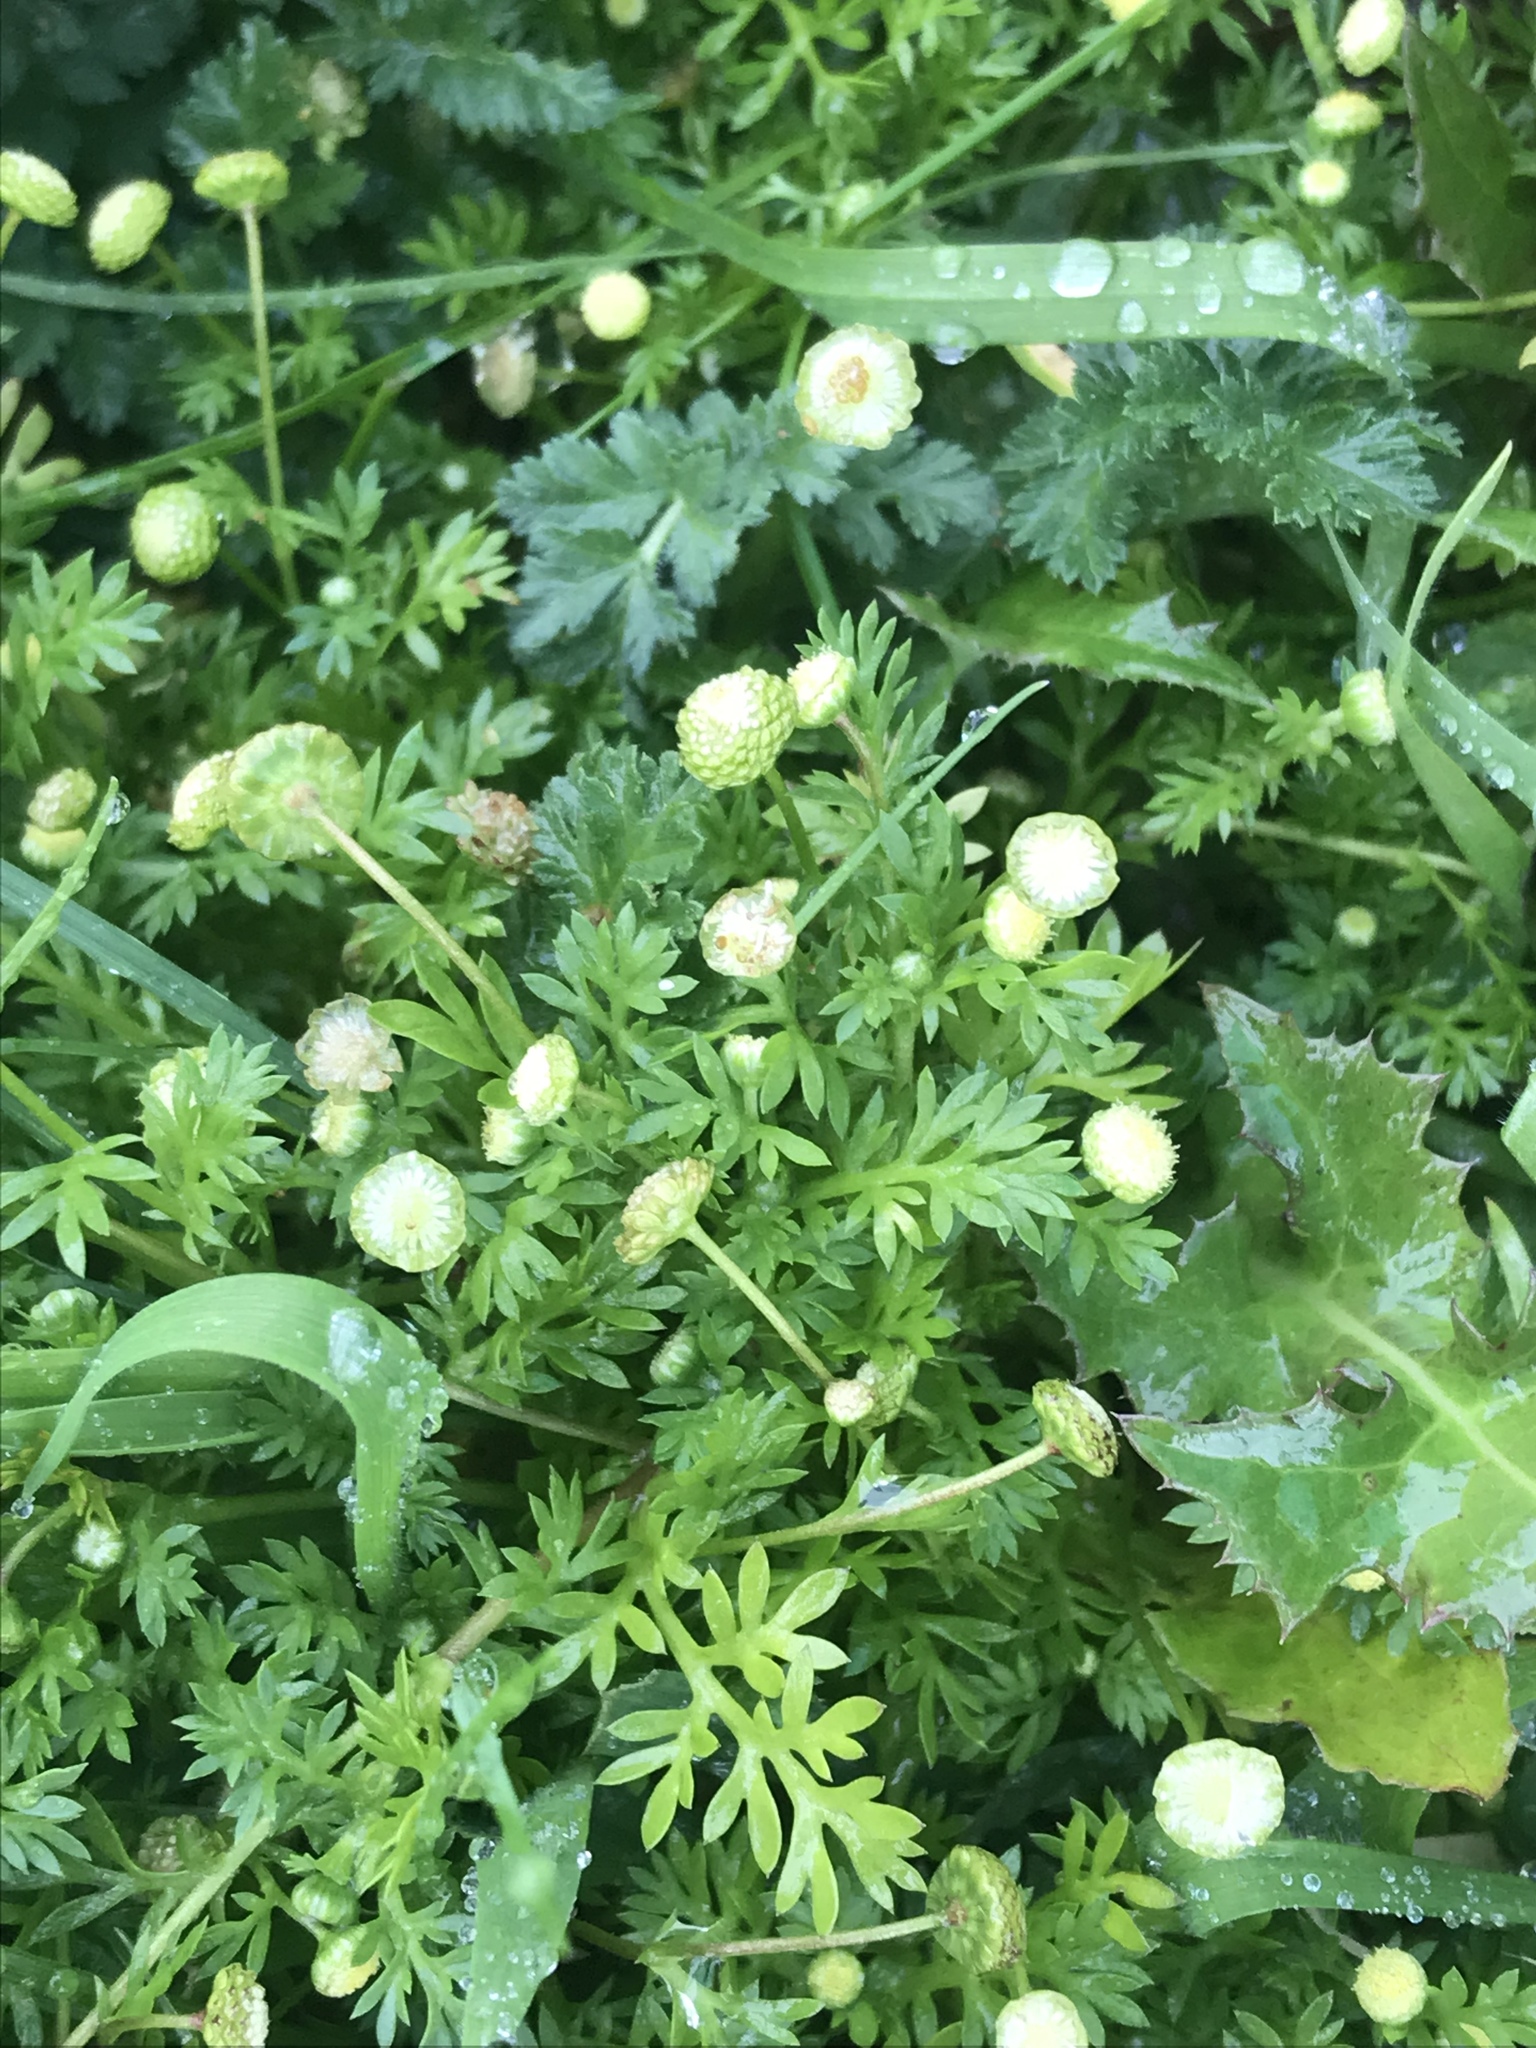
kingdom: Plantae
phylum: Tracheophyta
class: Magnoliopsida
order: Asterales
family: Asteraceae
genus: Cotula
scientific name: Cotula australis
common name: Australian waterbuttons
